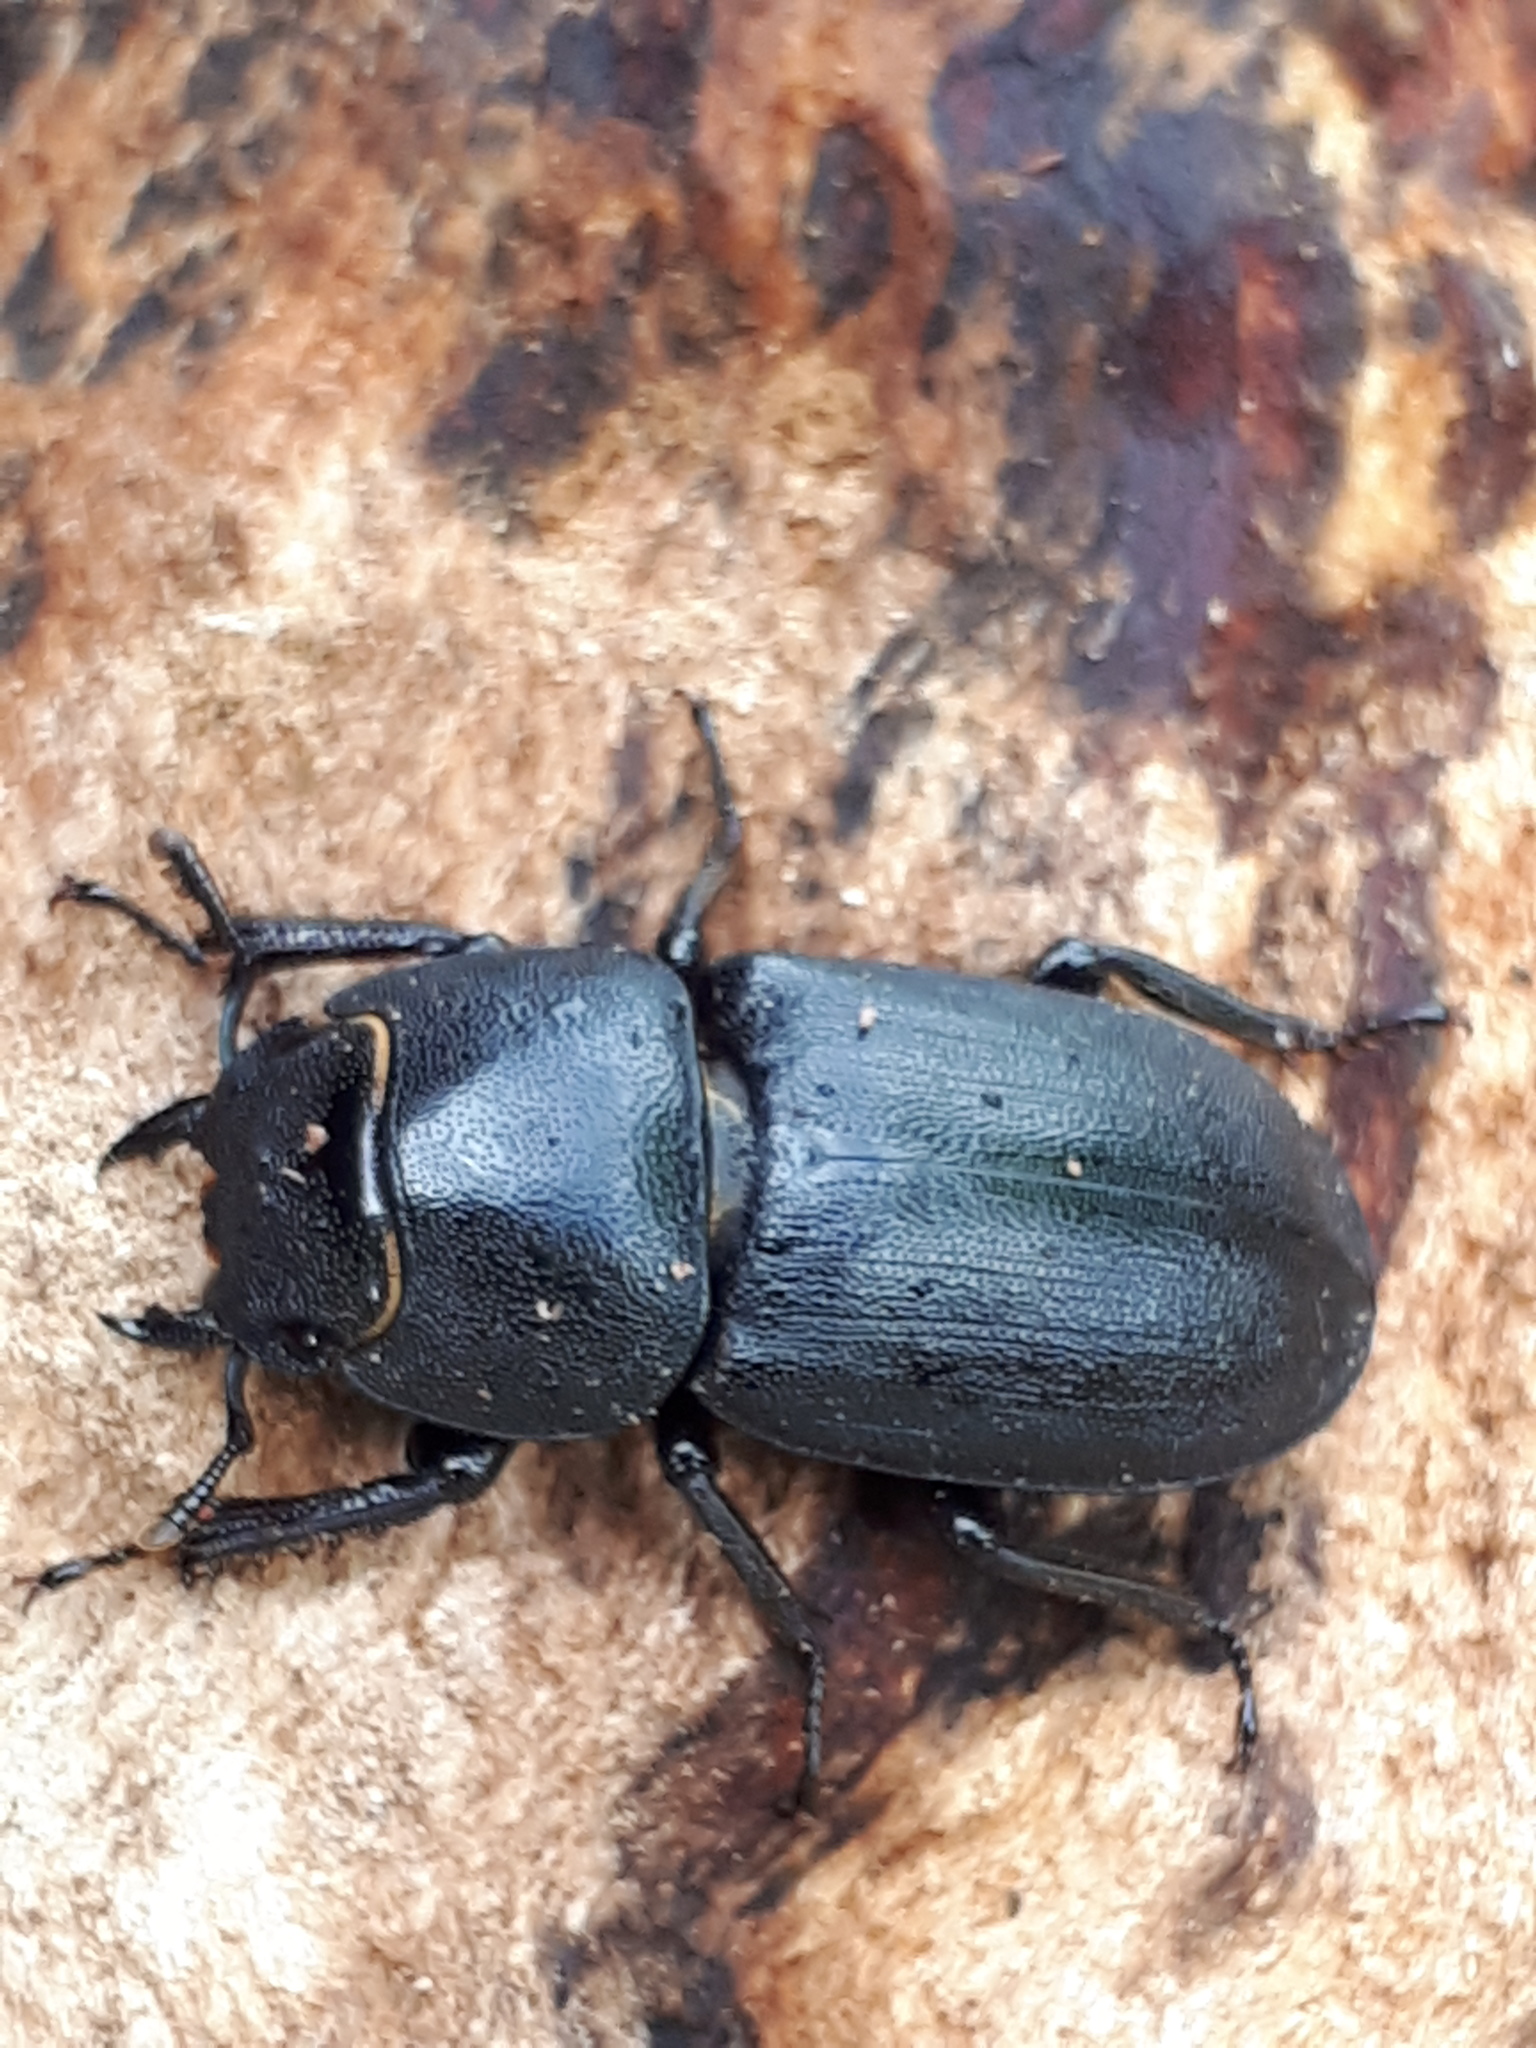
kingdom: Animalia
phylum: Arthropoda
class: Insecta
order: Coleoptera
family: Lucanidae
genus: Dorcus
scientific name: Dorcus parallelipipedus
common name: Lesser stag beetle
